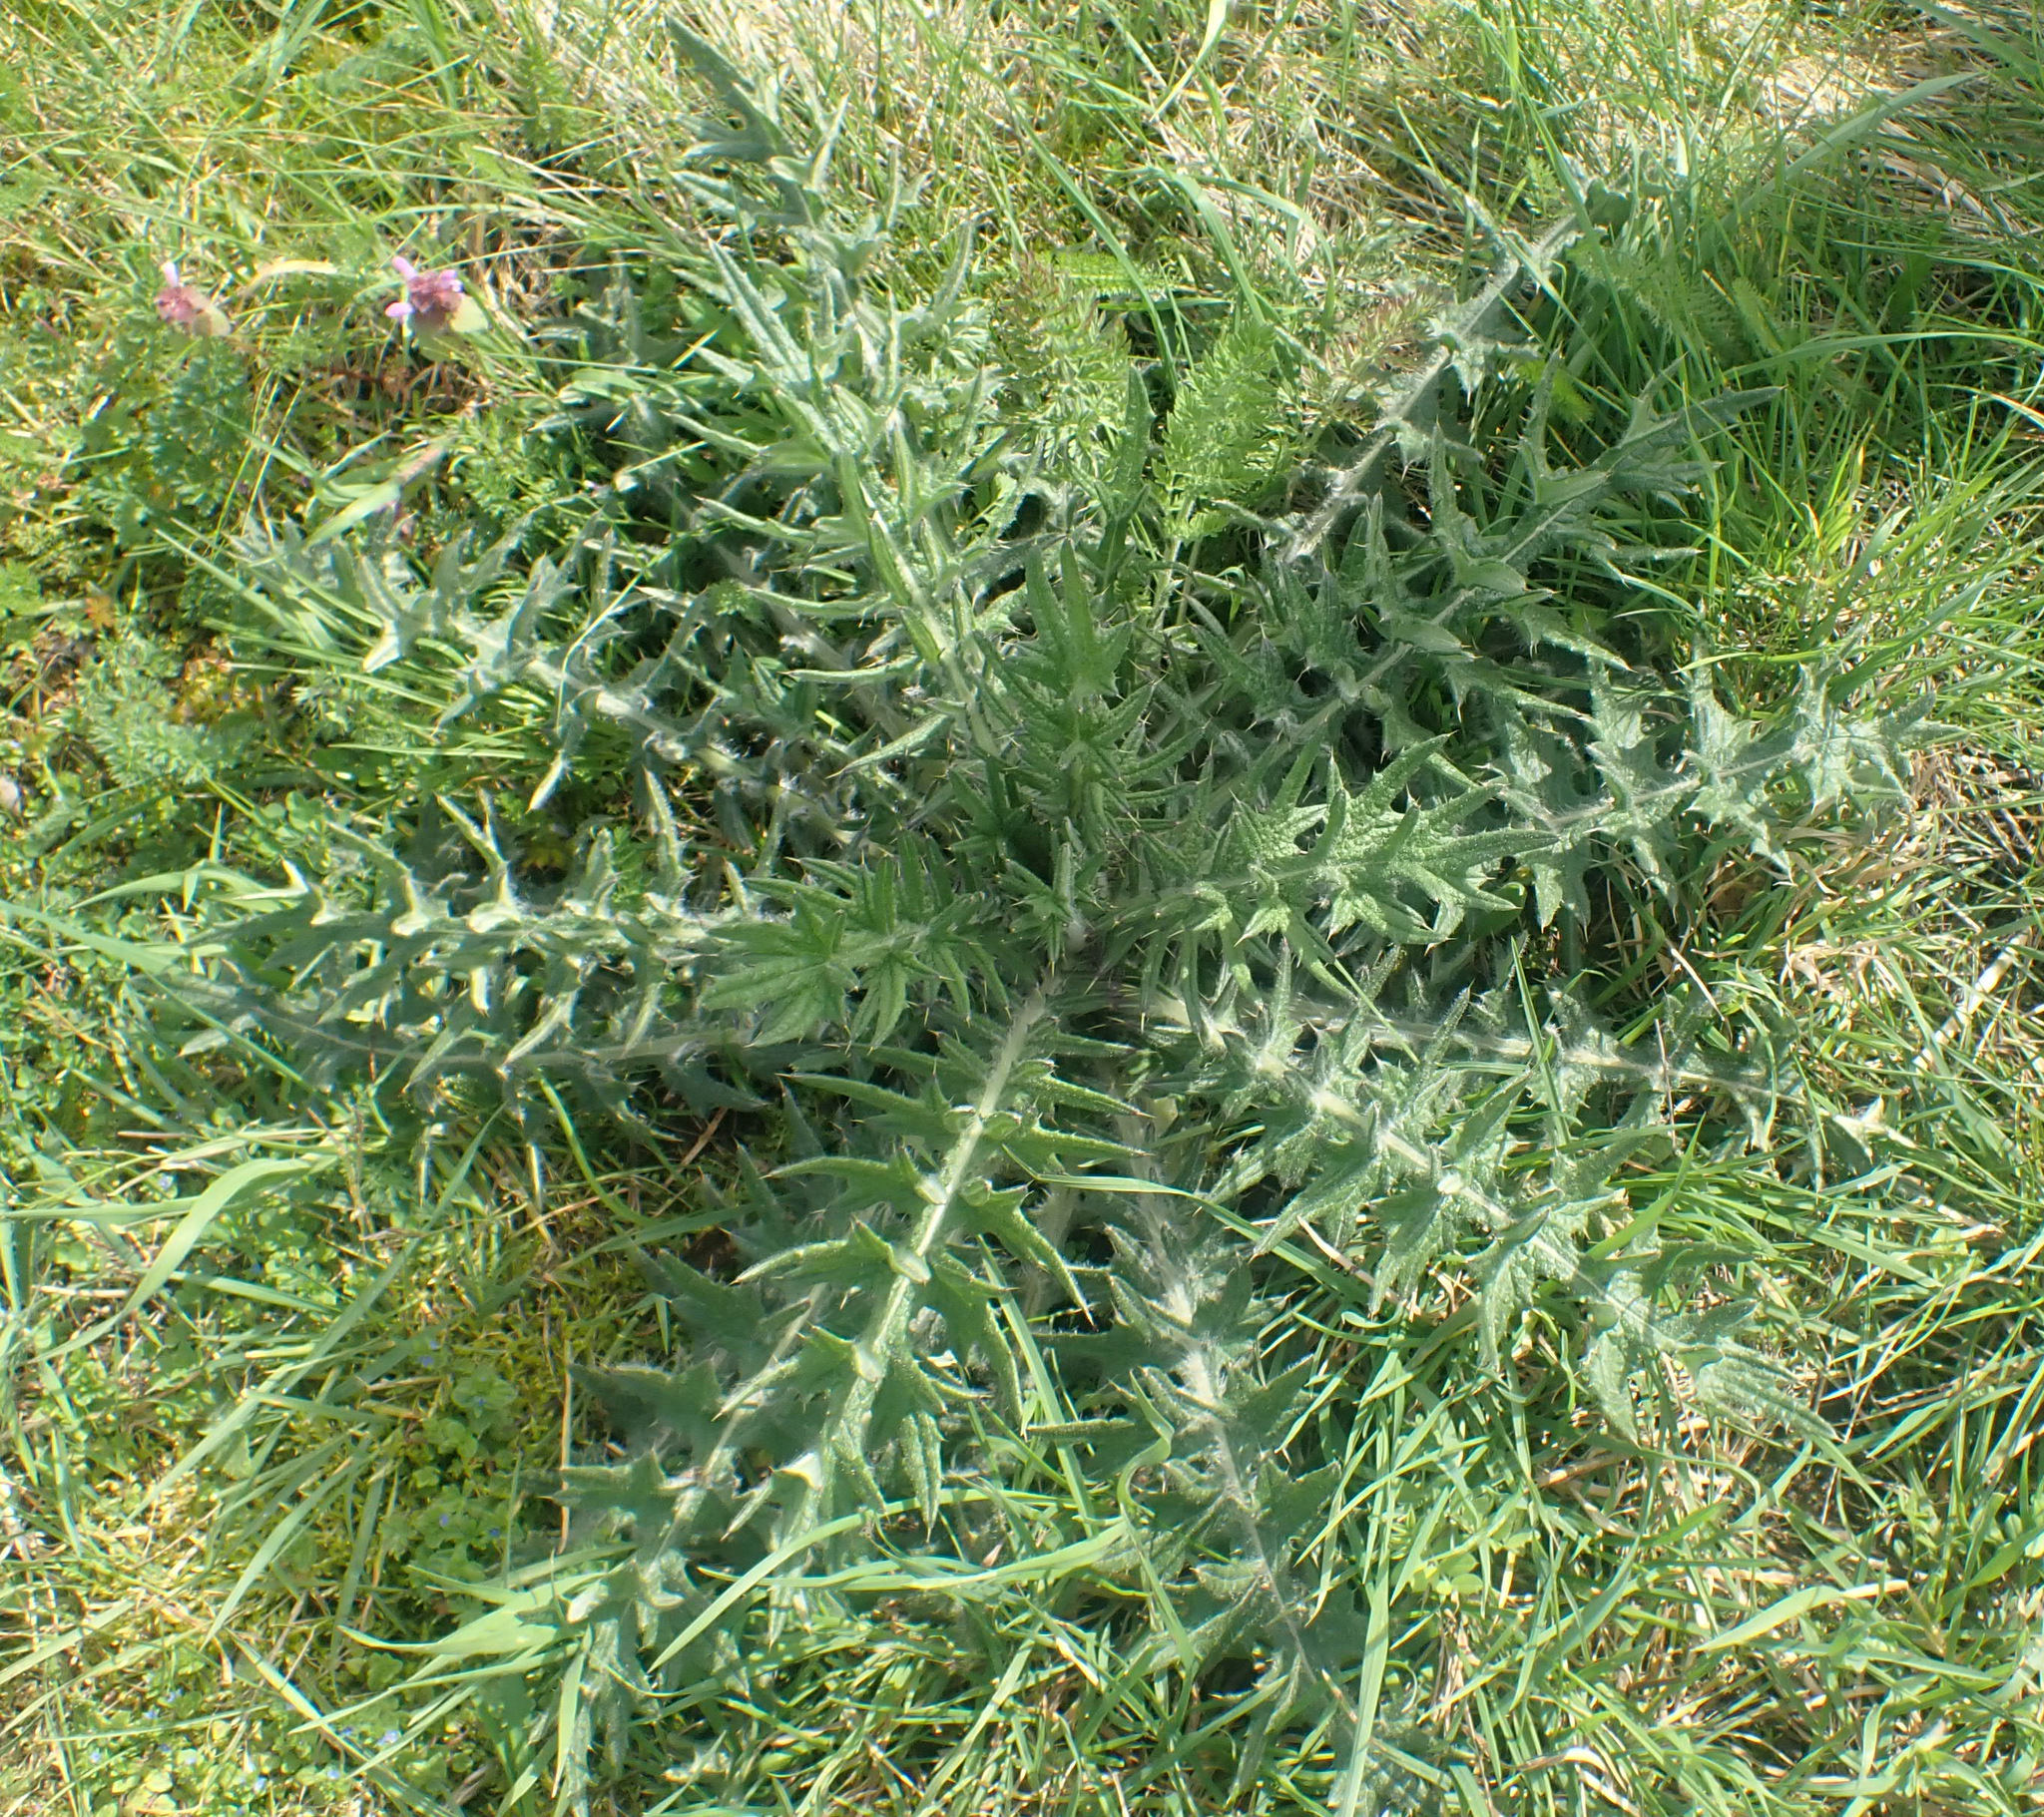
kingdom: Plantae
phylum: Tracheophyta
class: Magnoliopsida
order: Asterales
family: Asteraceae
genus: Cirsium
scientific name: Cirsium vulgare
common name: Bull thistle
